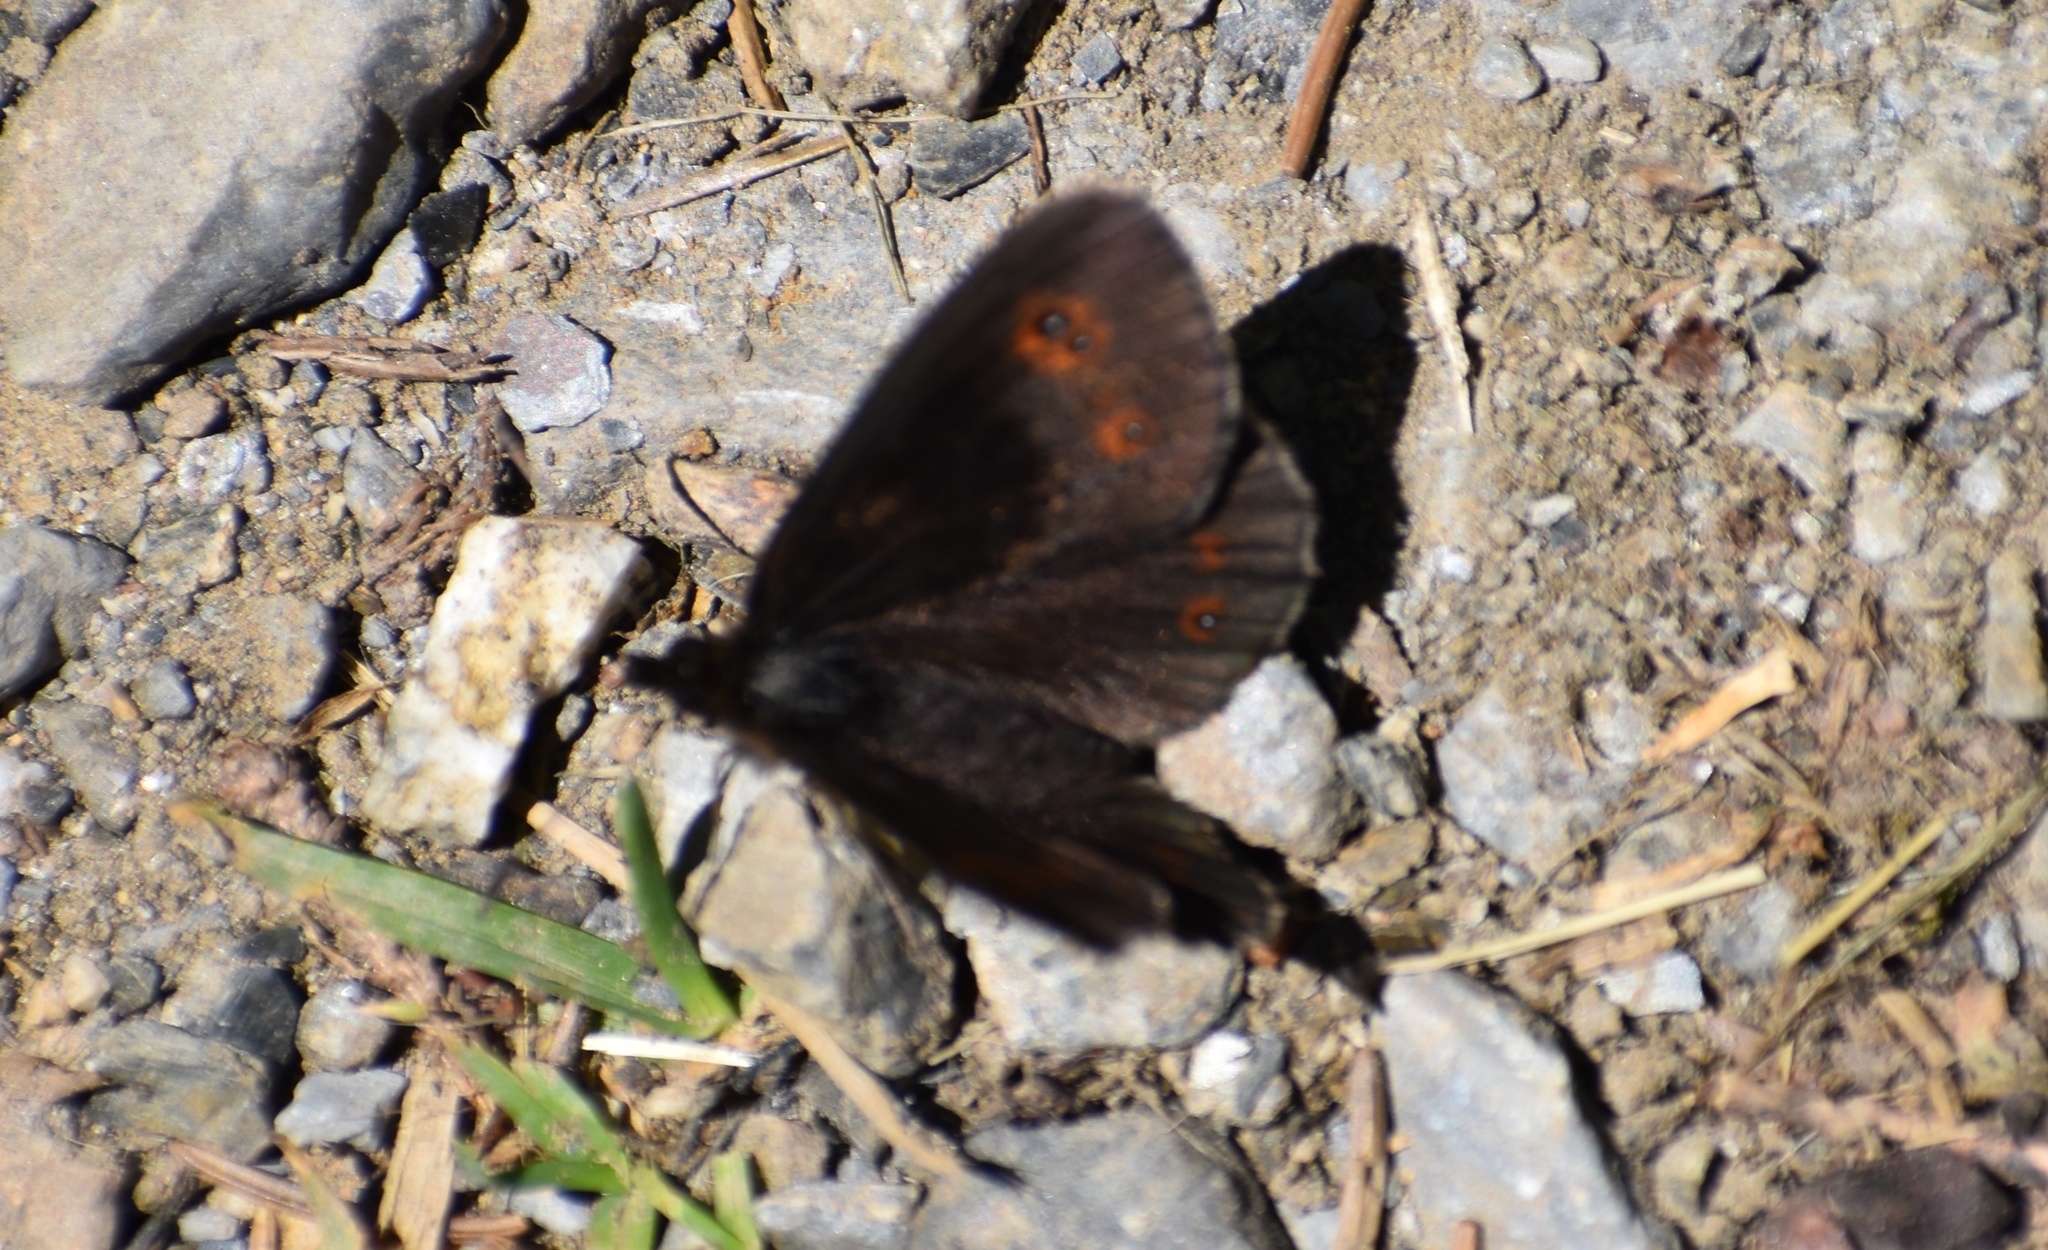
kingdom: Animalia
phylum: Arthropoda
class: Insecta
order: Lepidoptera
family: Nymphalidae
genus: Erebia
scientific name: Erebia oeme
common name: Bright-eyed ringlet
